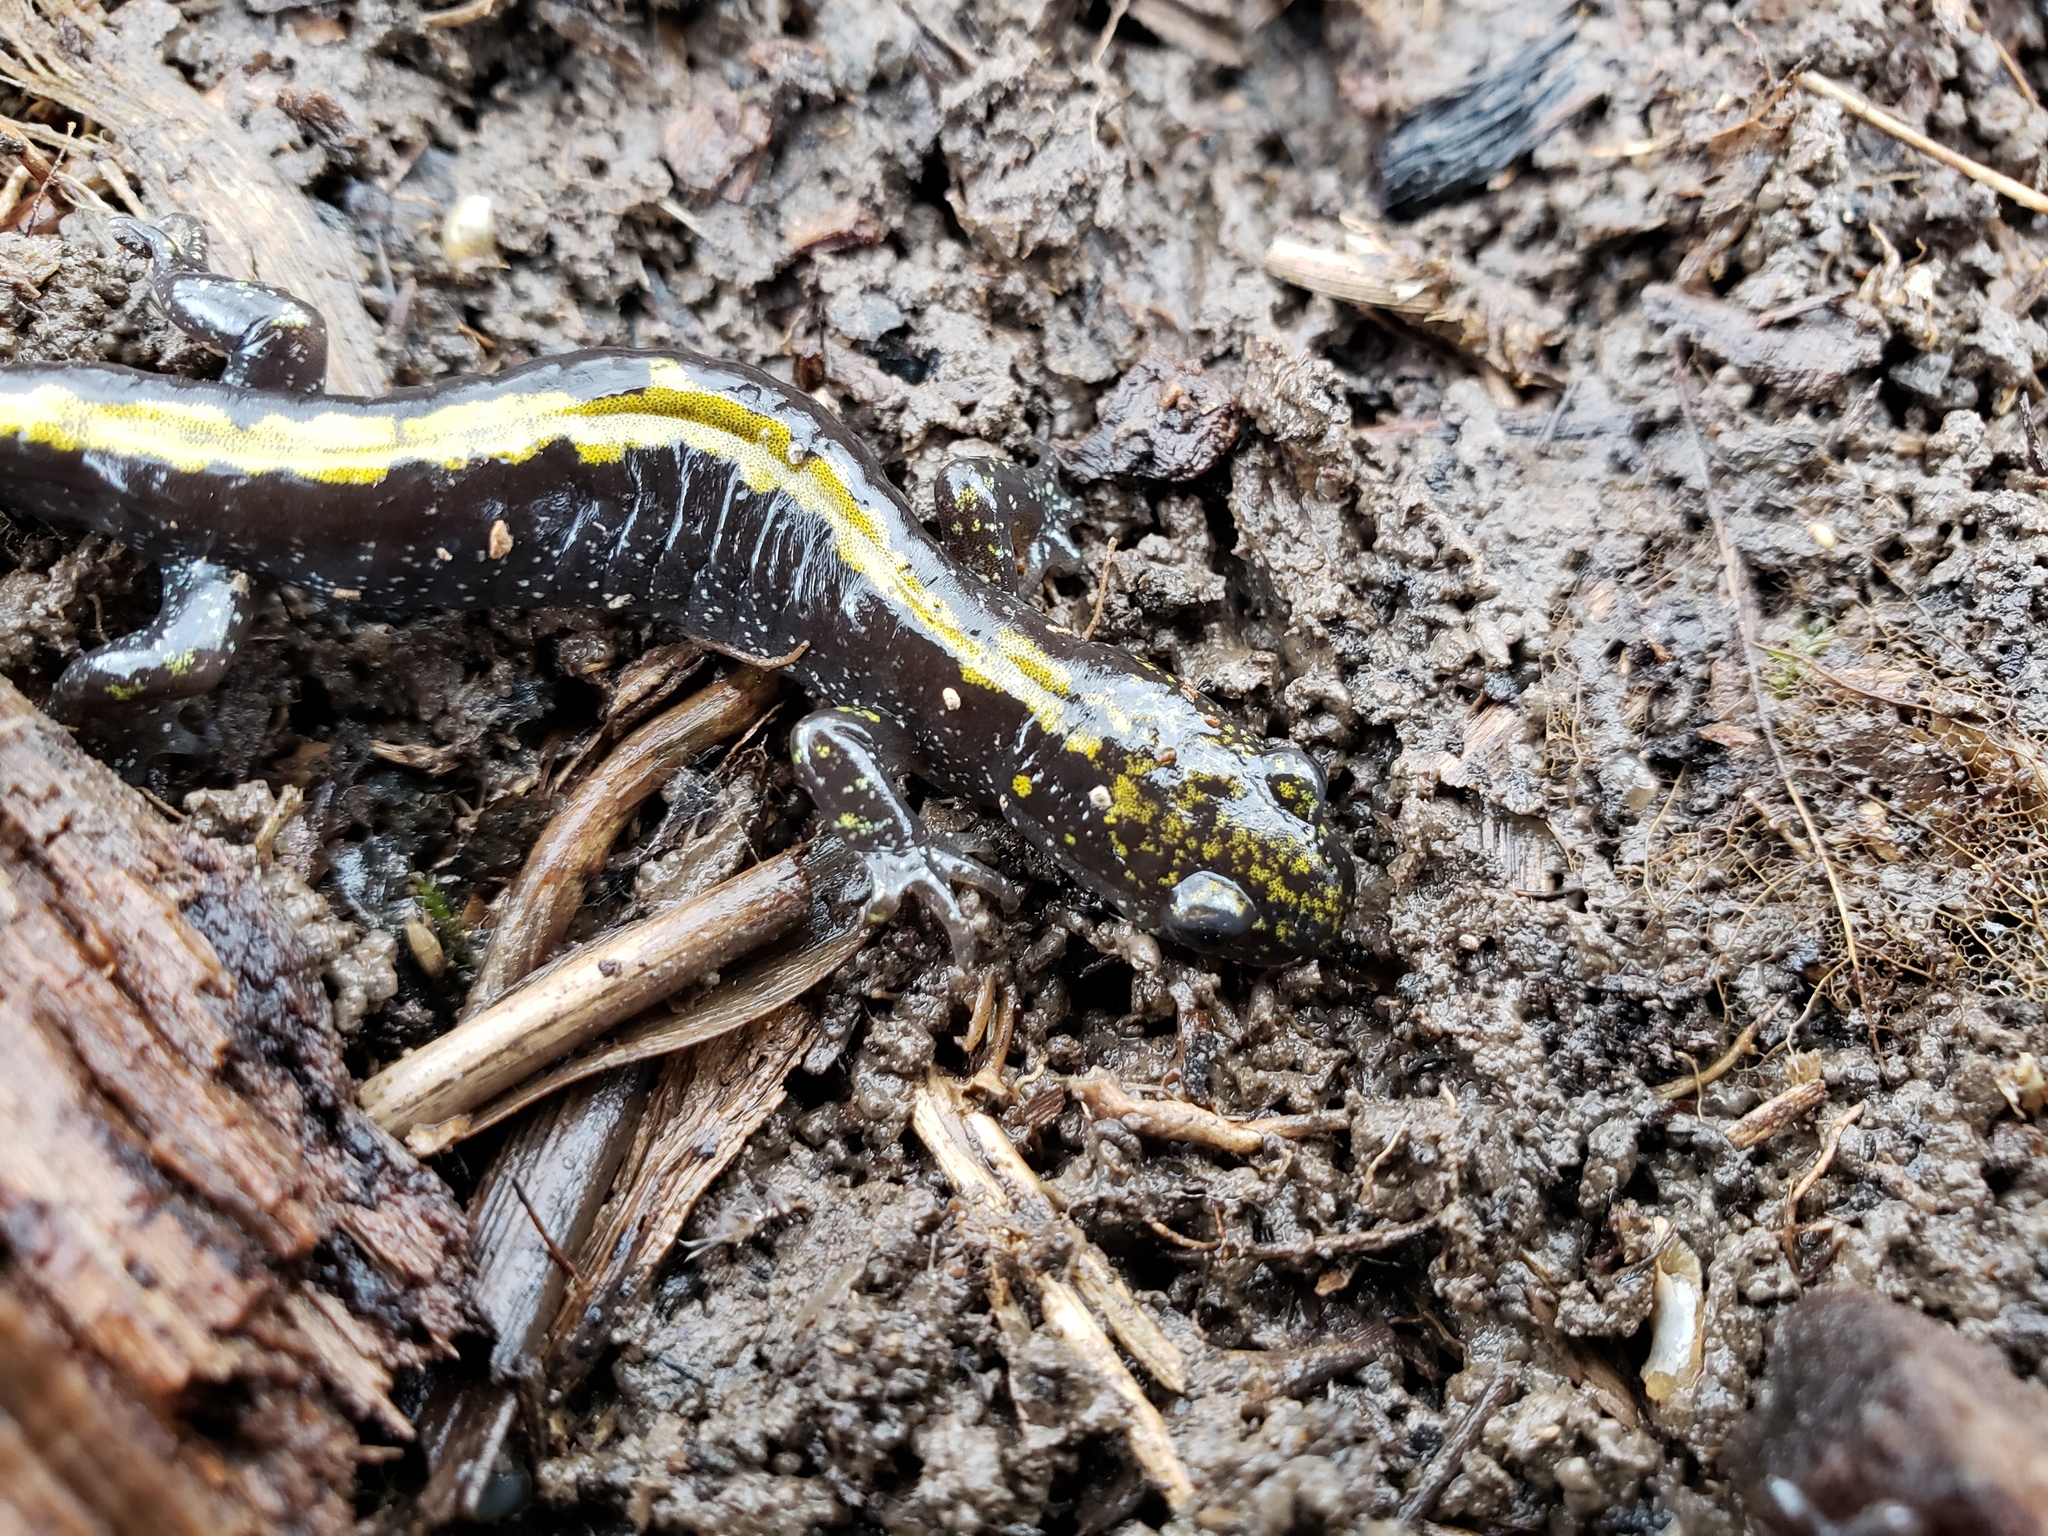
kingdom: Animalia
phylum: Chordata
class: Amphibia
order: Caudata
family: Ambystomatidae
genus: Ambystoma
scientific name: Ambystoma macrodactylum
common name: Long-toed salamander
